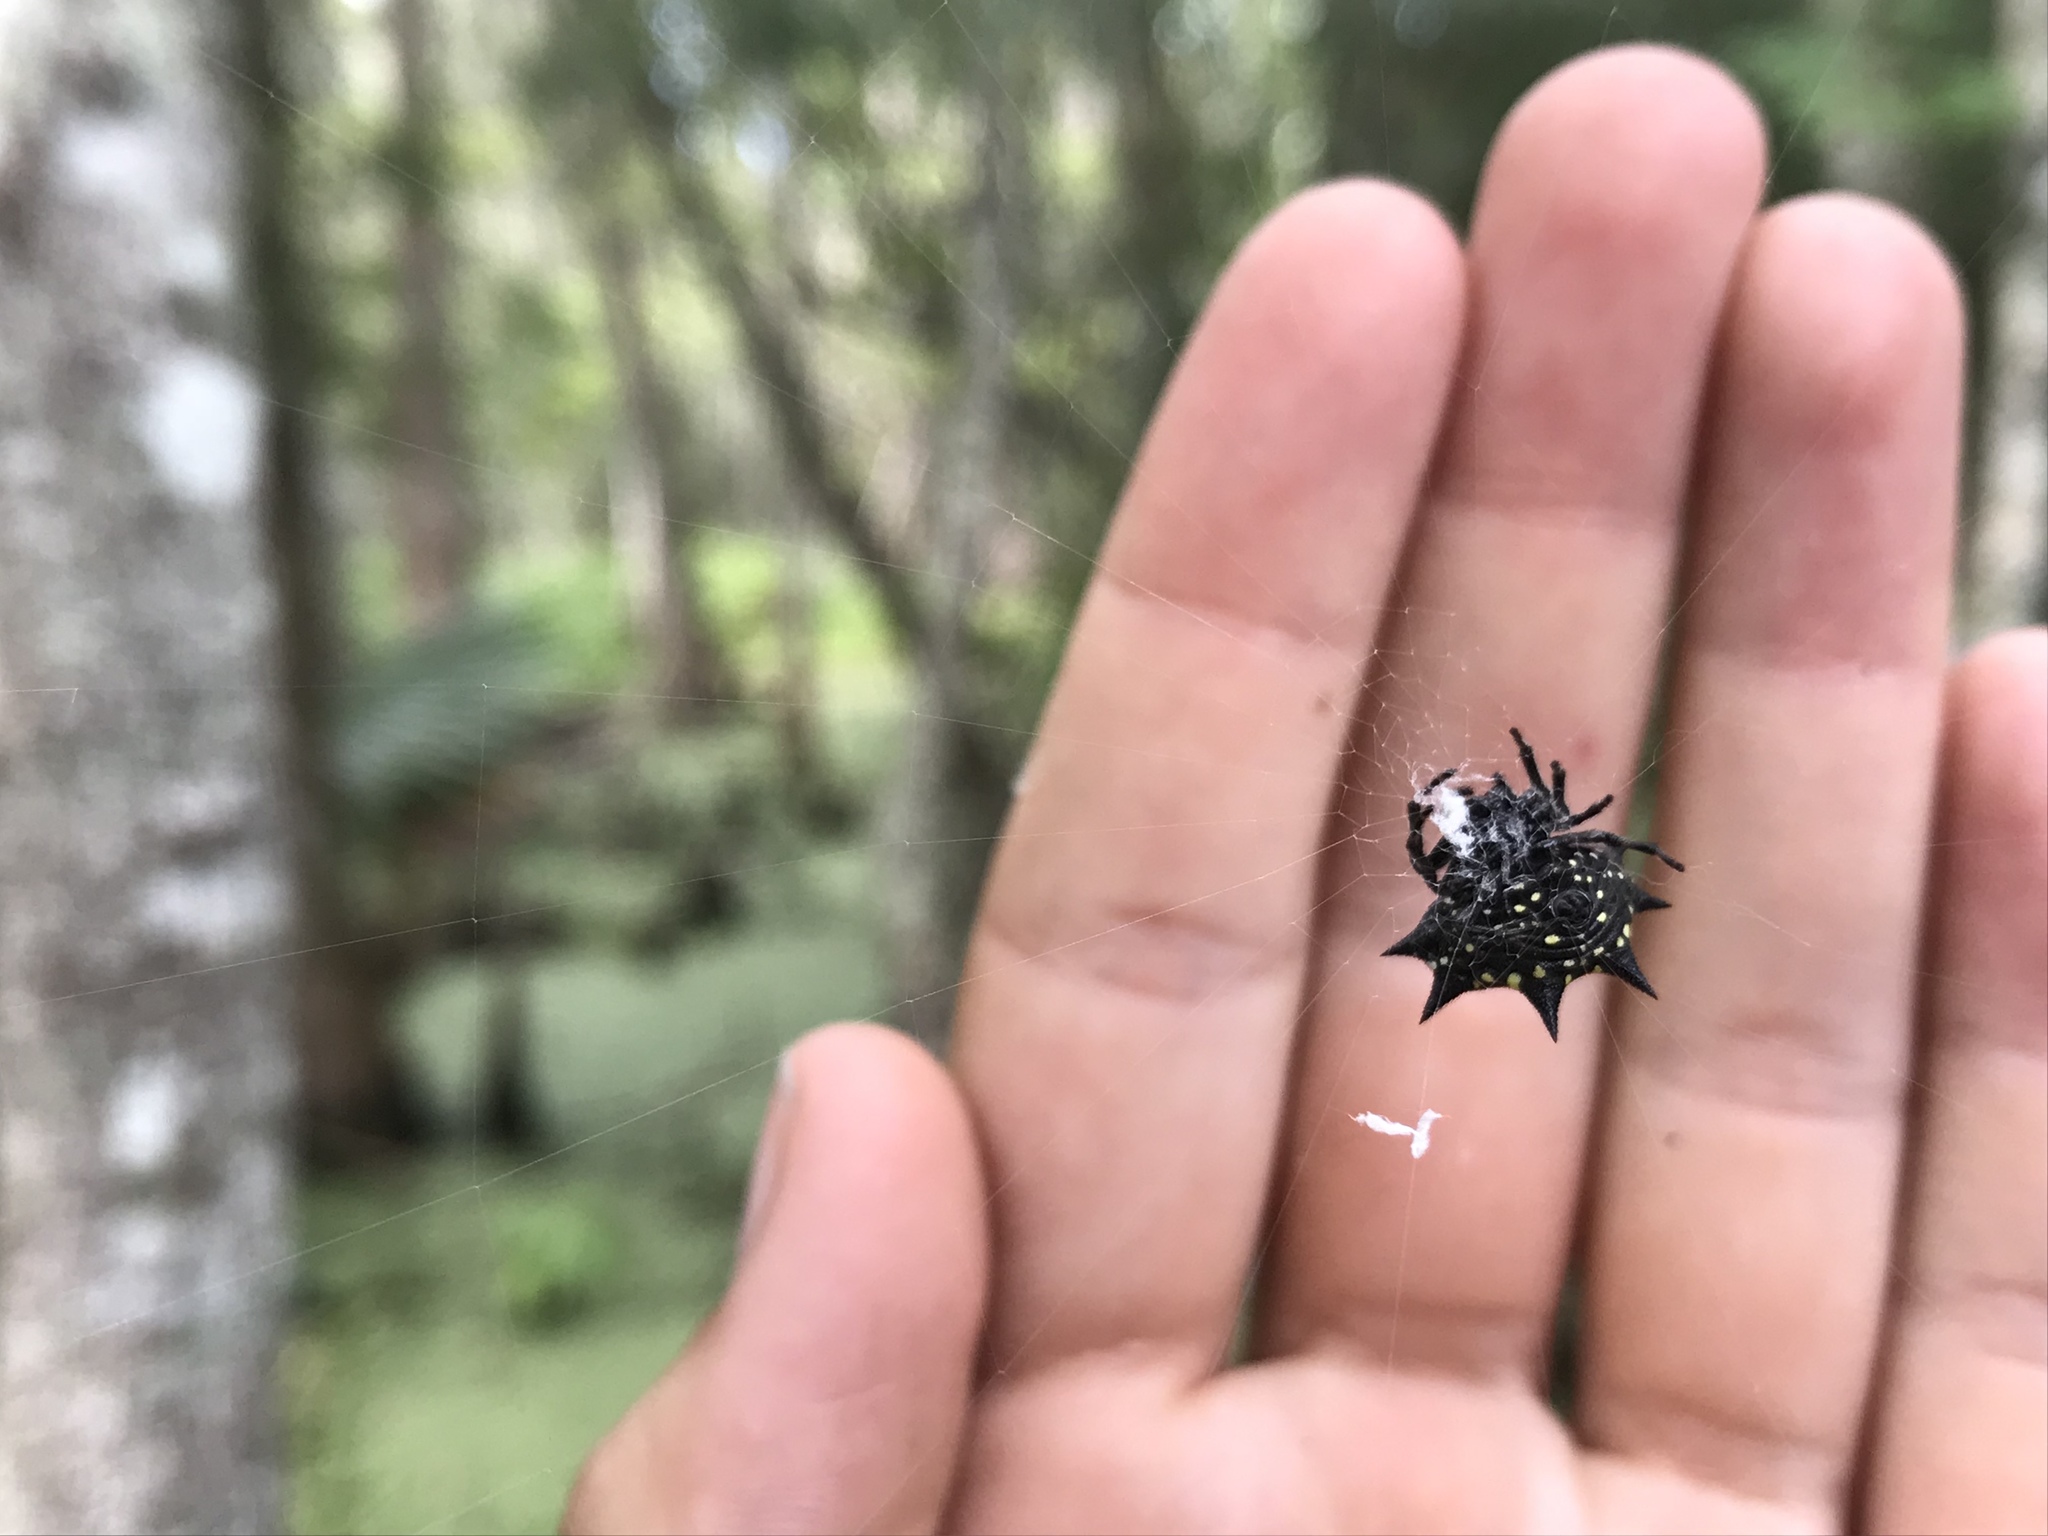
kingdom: Animalia
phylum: Arthropoda
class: Arachnida
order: Araneae
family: Araneidae
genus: Gasteracantha
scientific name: Gasteracantha cancriformis
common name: Orb weavers
